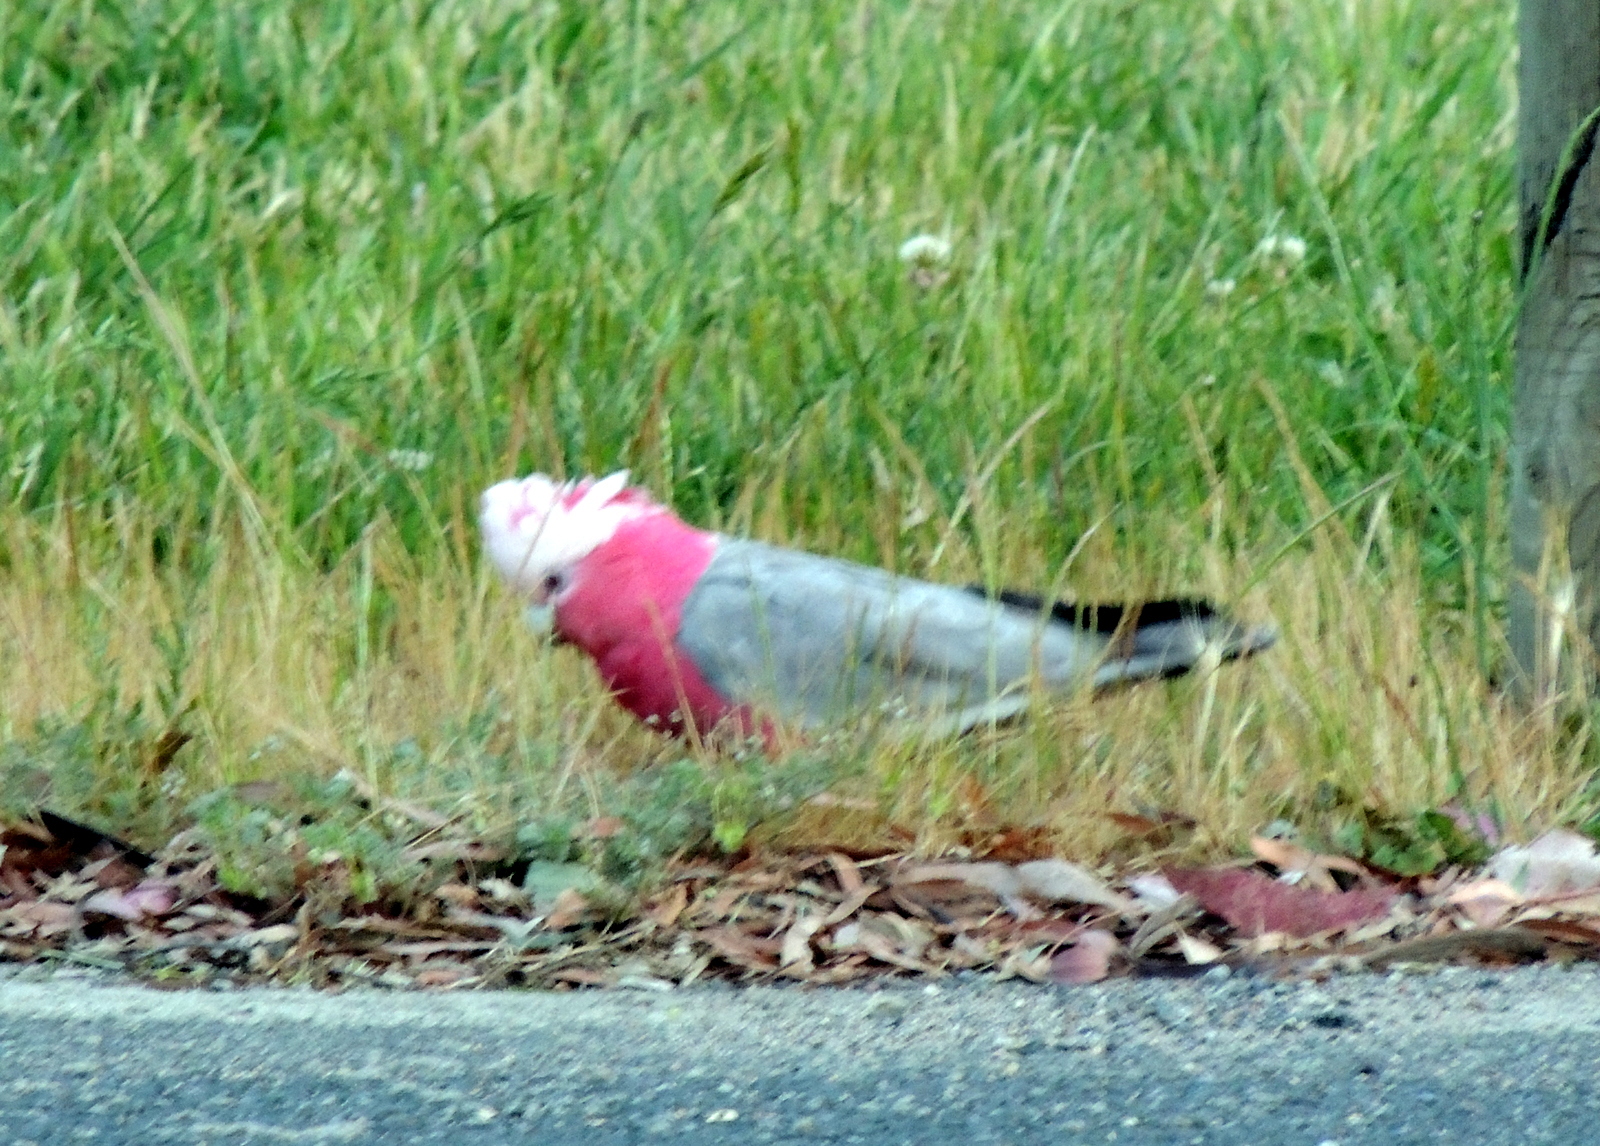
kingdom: Animalia
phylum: Chordata
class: Aves
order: Psittaciformes
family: Psittacidae
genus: Eolophus
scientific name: Eolophus roseicapilla
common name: Galah
